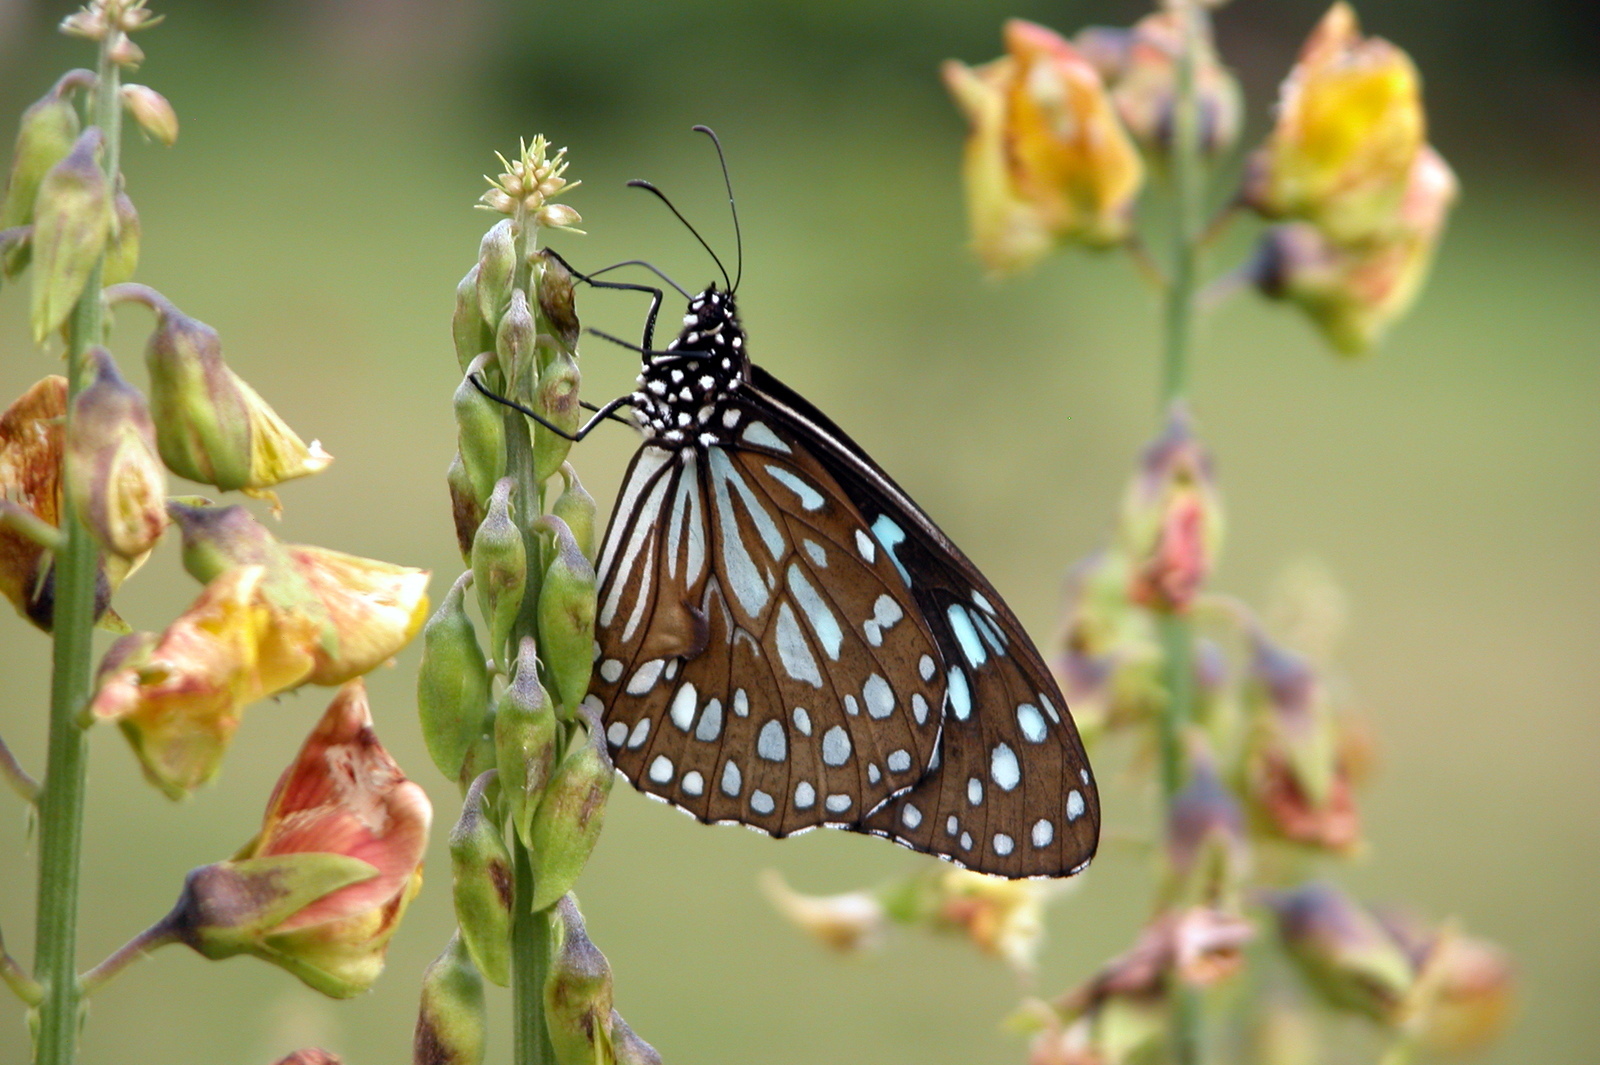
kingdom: Animalia
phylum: Arthropoda
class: Insecta
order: Lepidoptera
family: Nymphalidae
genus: Tirumala
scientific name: Tirumala limniace
